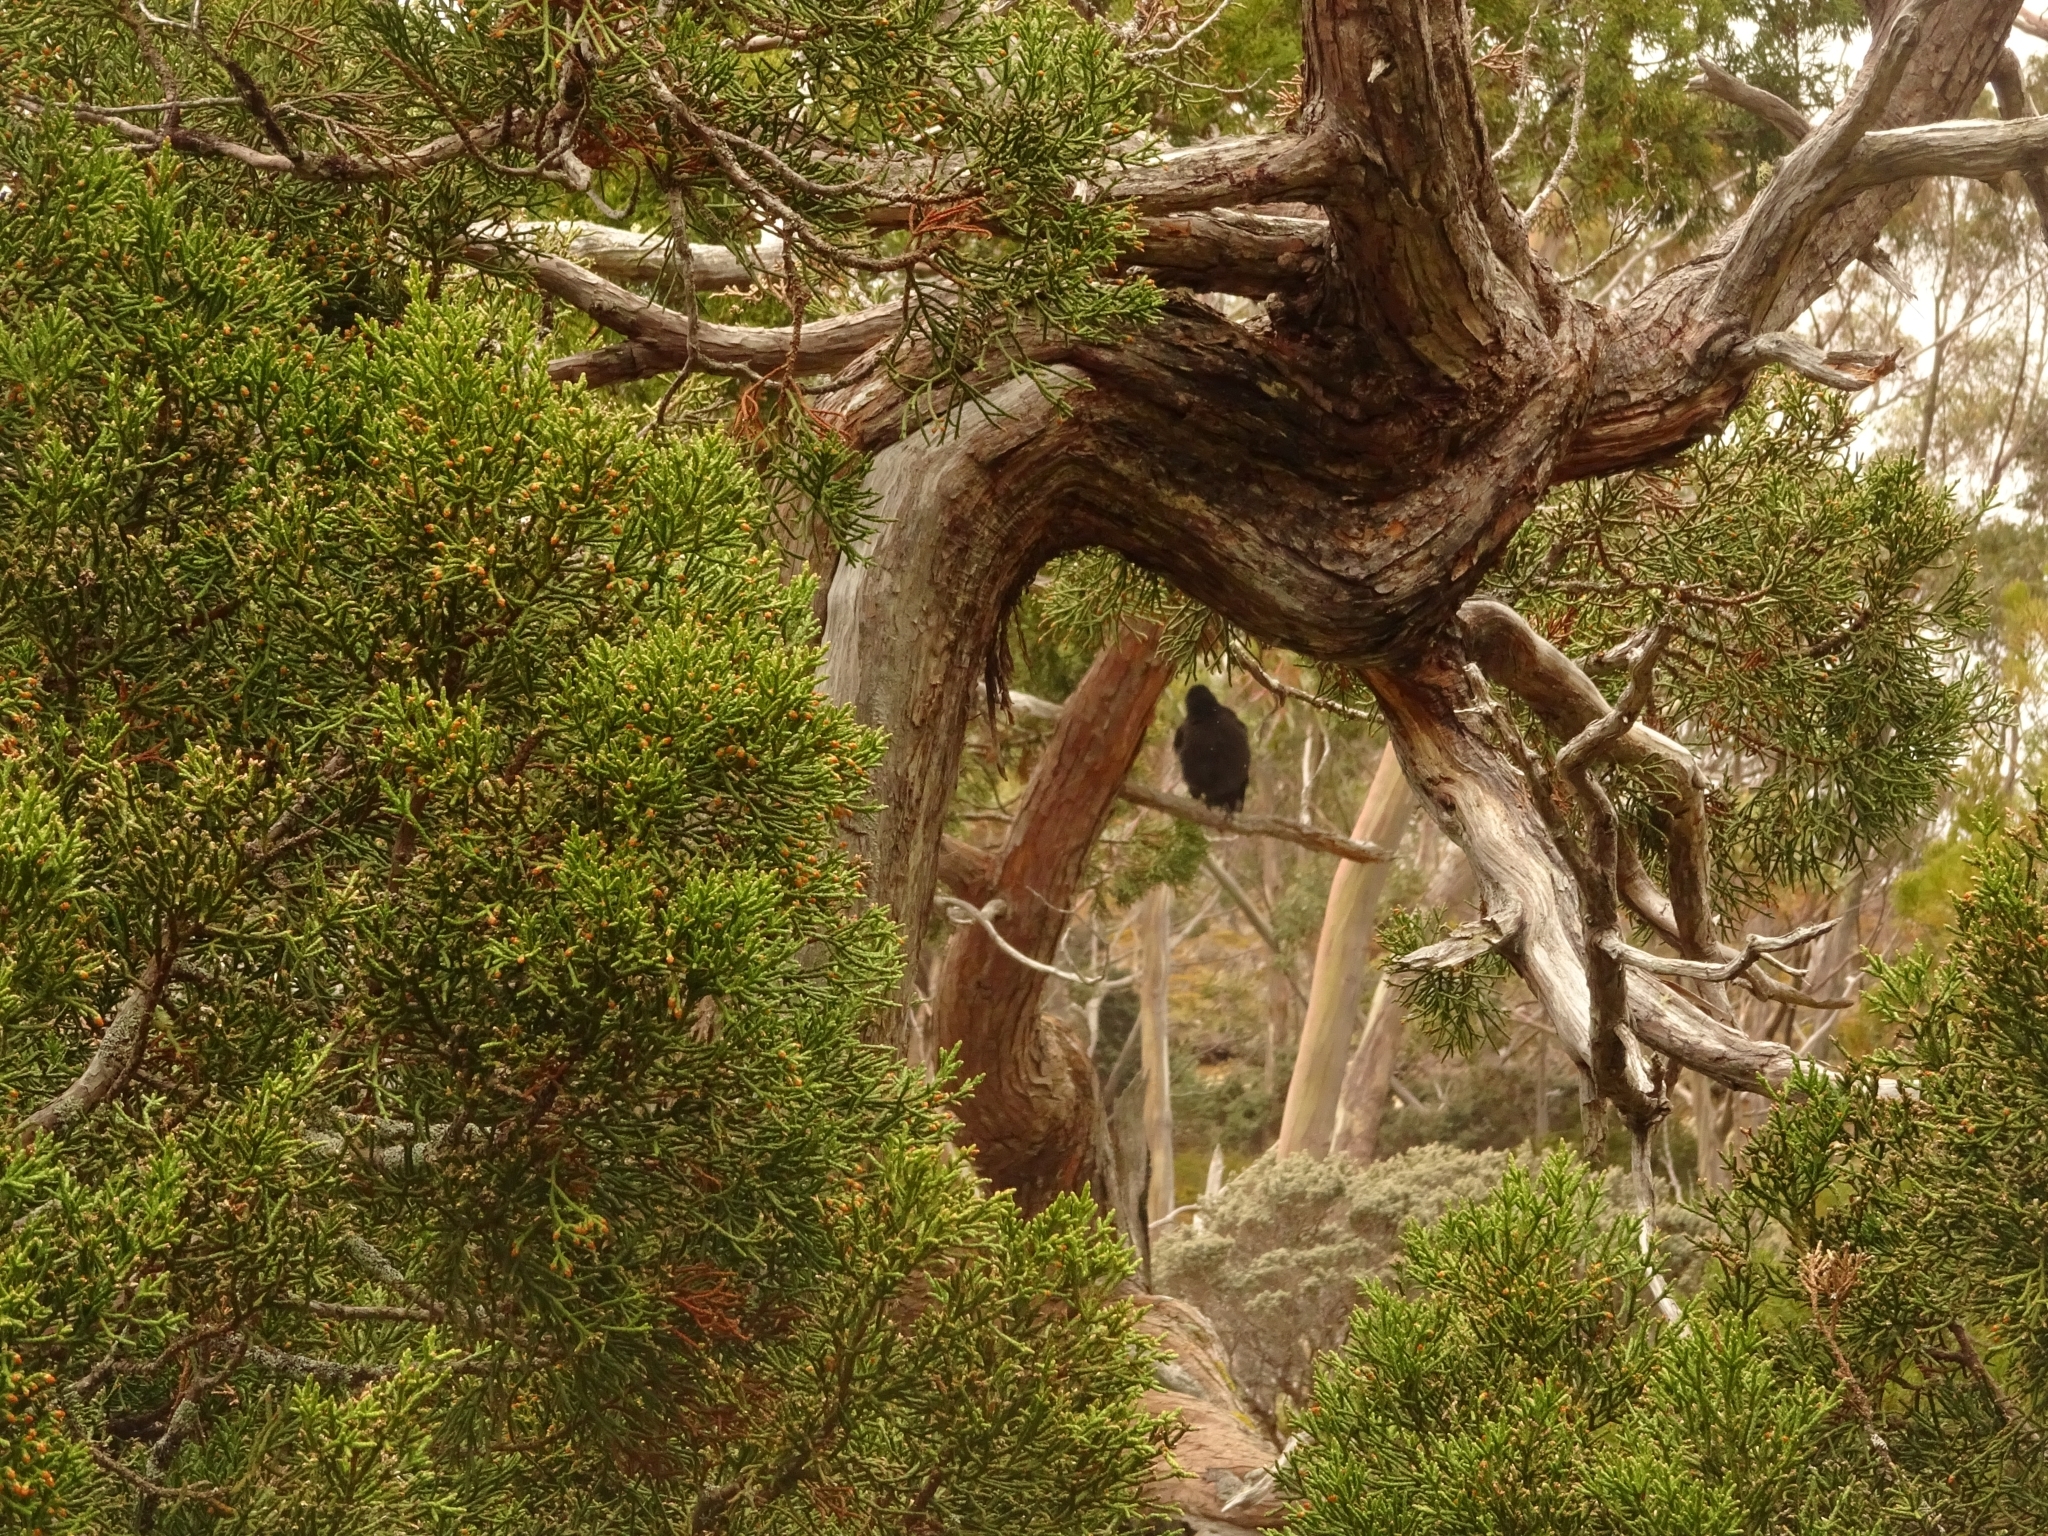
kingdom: Animalia
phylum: Chordata
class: Aves
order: Passeriformes
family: Cracticidae
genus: Strepera
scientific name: Strepera fuliginosa
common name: Black currawong
